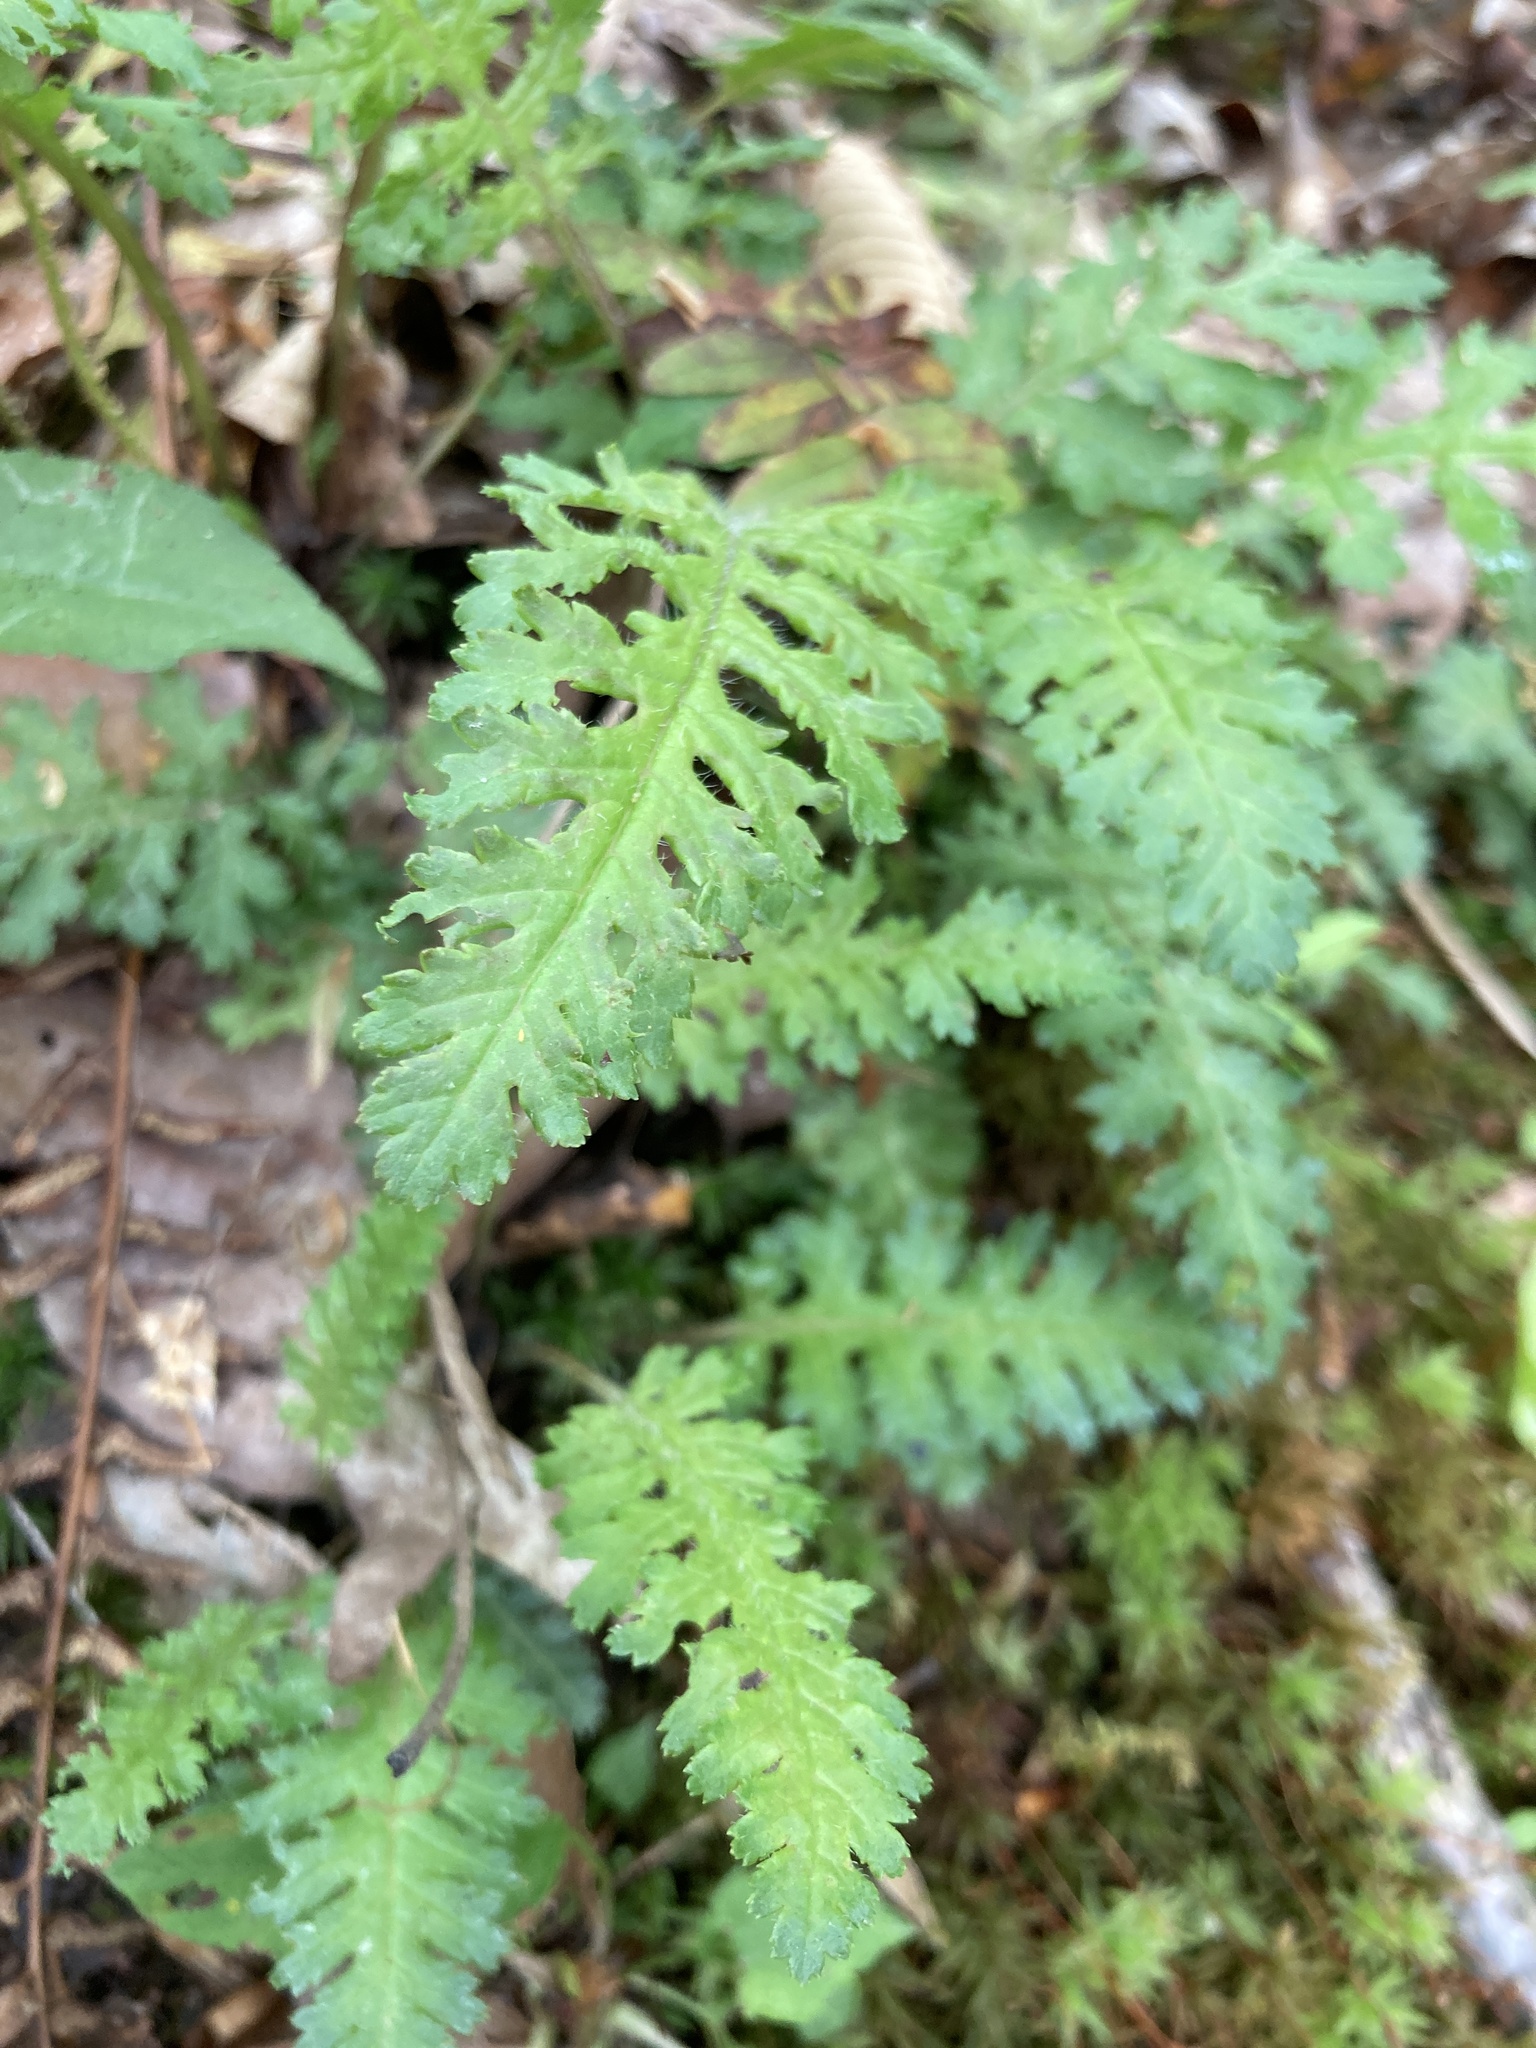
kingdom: Plantae
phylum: Tracheophyta
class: Magnoliopsida
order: Lamiales
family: Orobanchaceae
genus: Pedicularis
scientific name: Pedicularis canadensis
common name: Early lousewort
